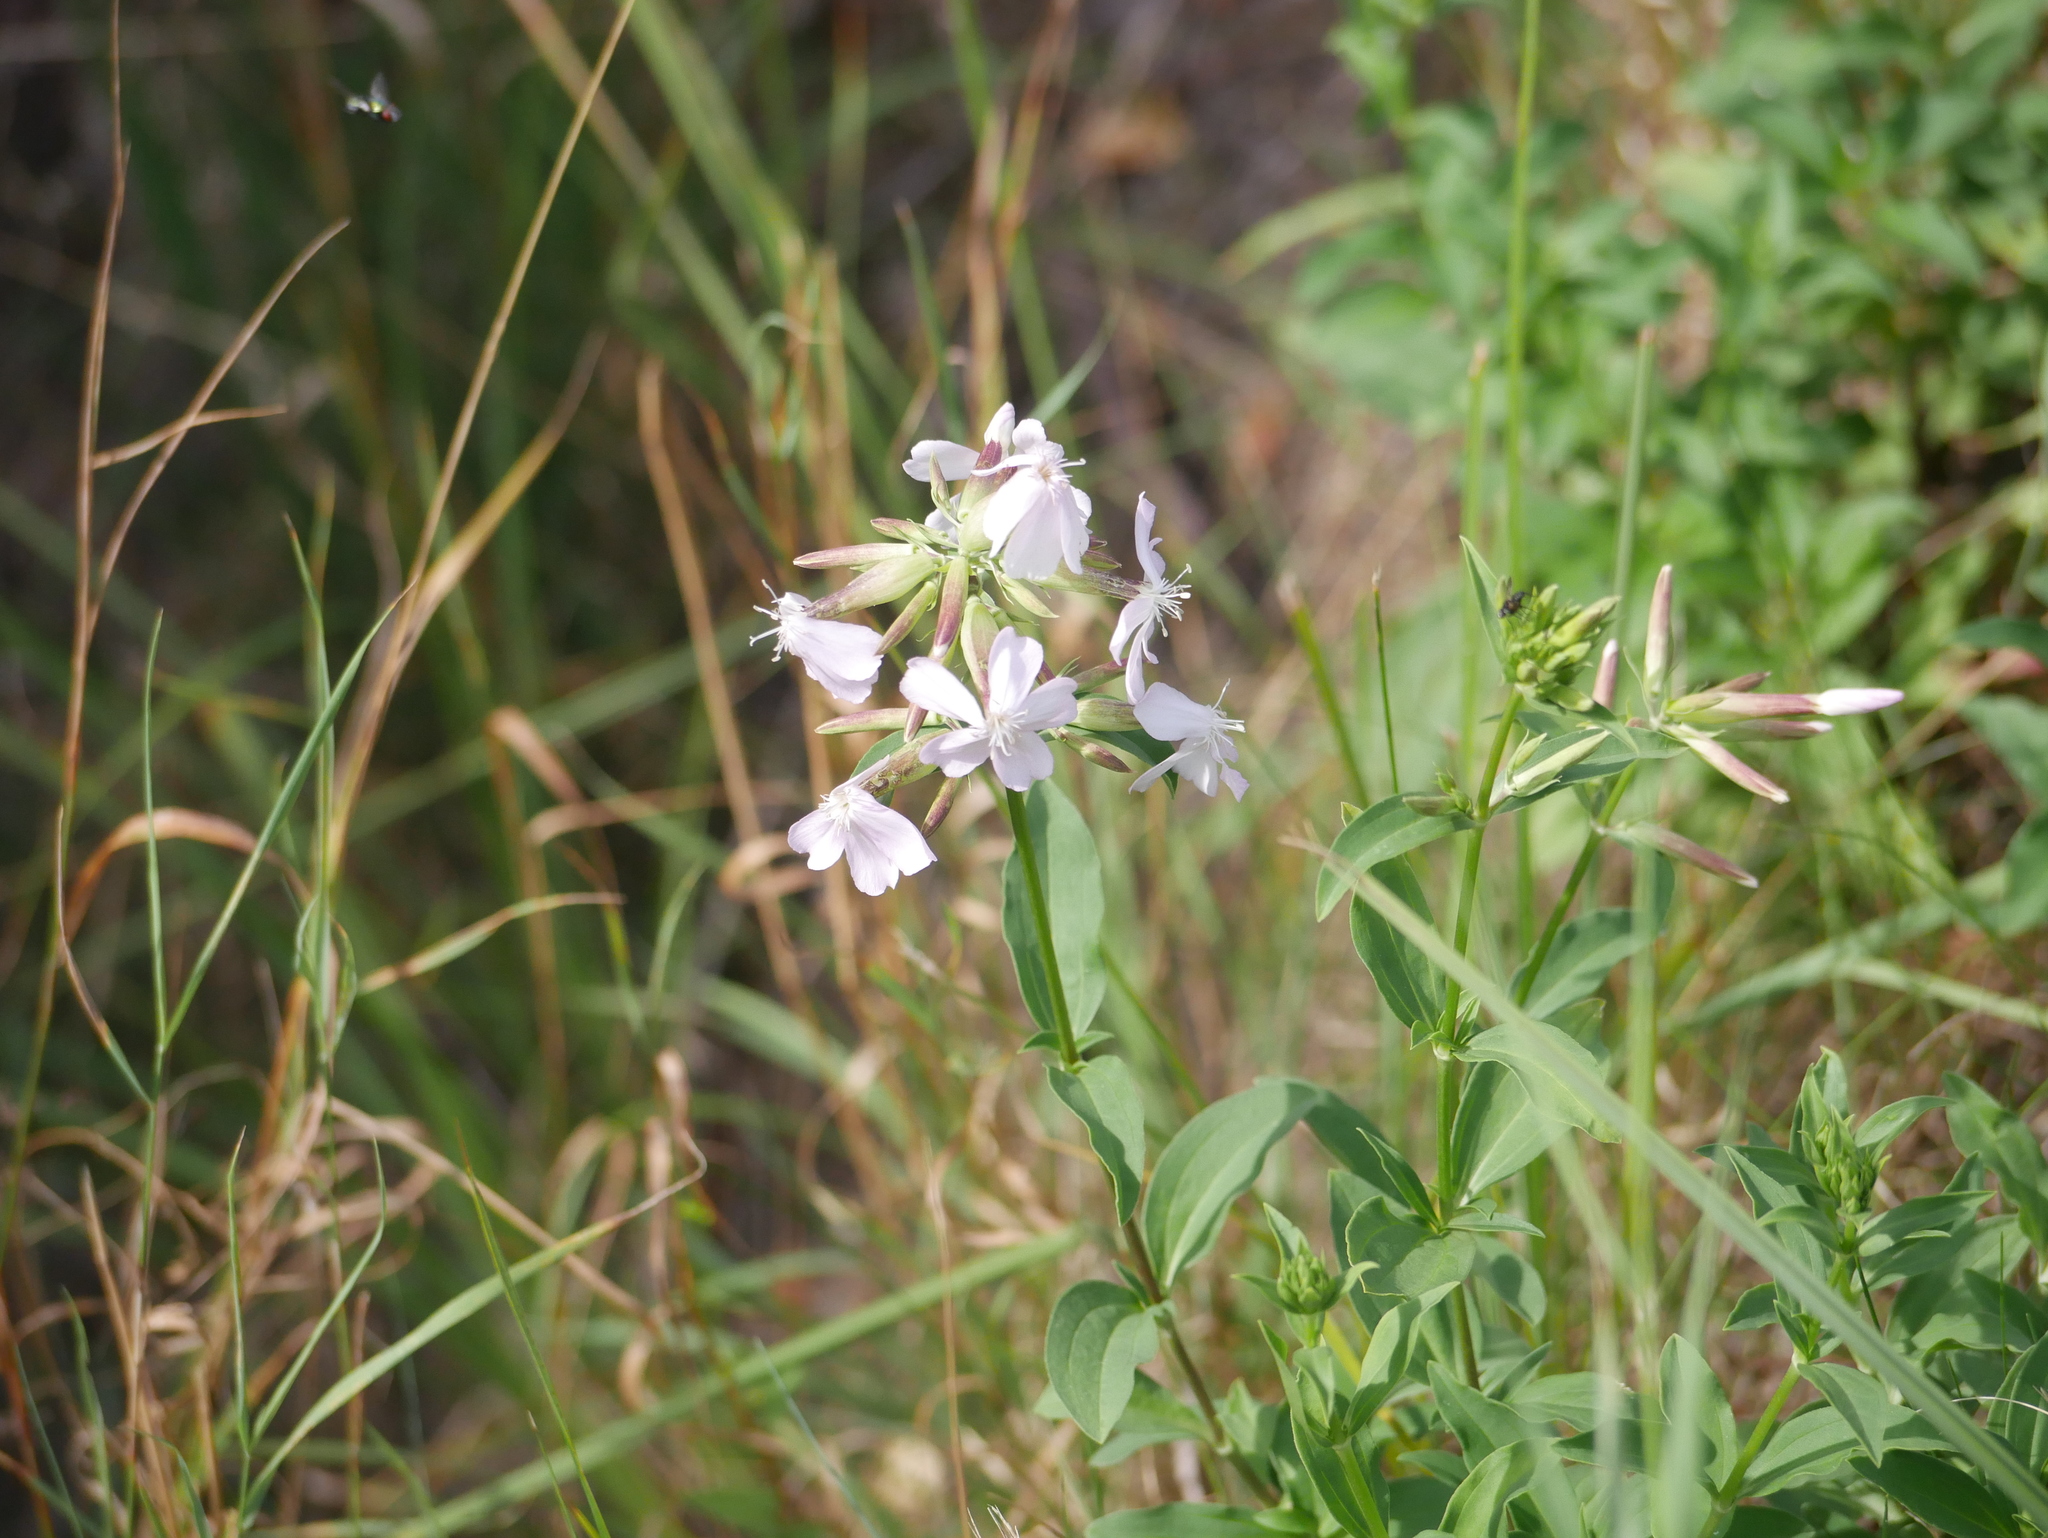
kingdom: Plantae
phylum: Tracheophyta
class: Magnoliopsida
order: Caryophyllales
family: Caryophyllaceae
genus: Saponaria
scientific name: Saponaria officinalis
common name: Soapwort
